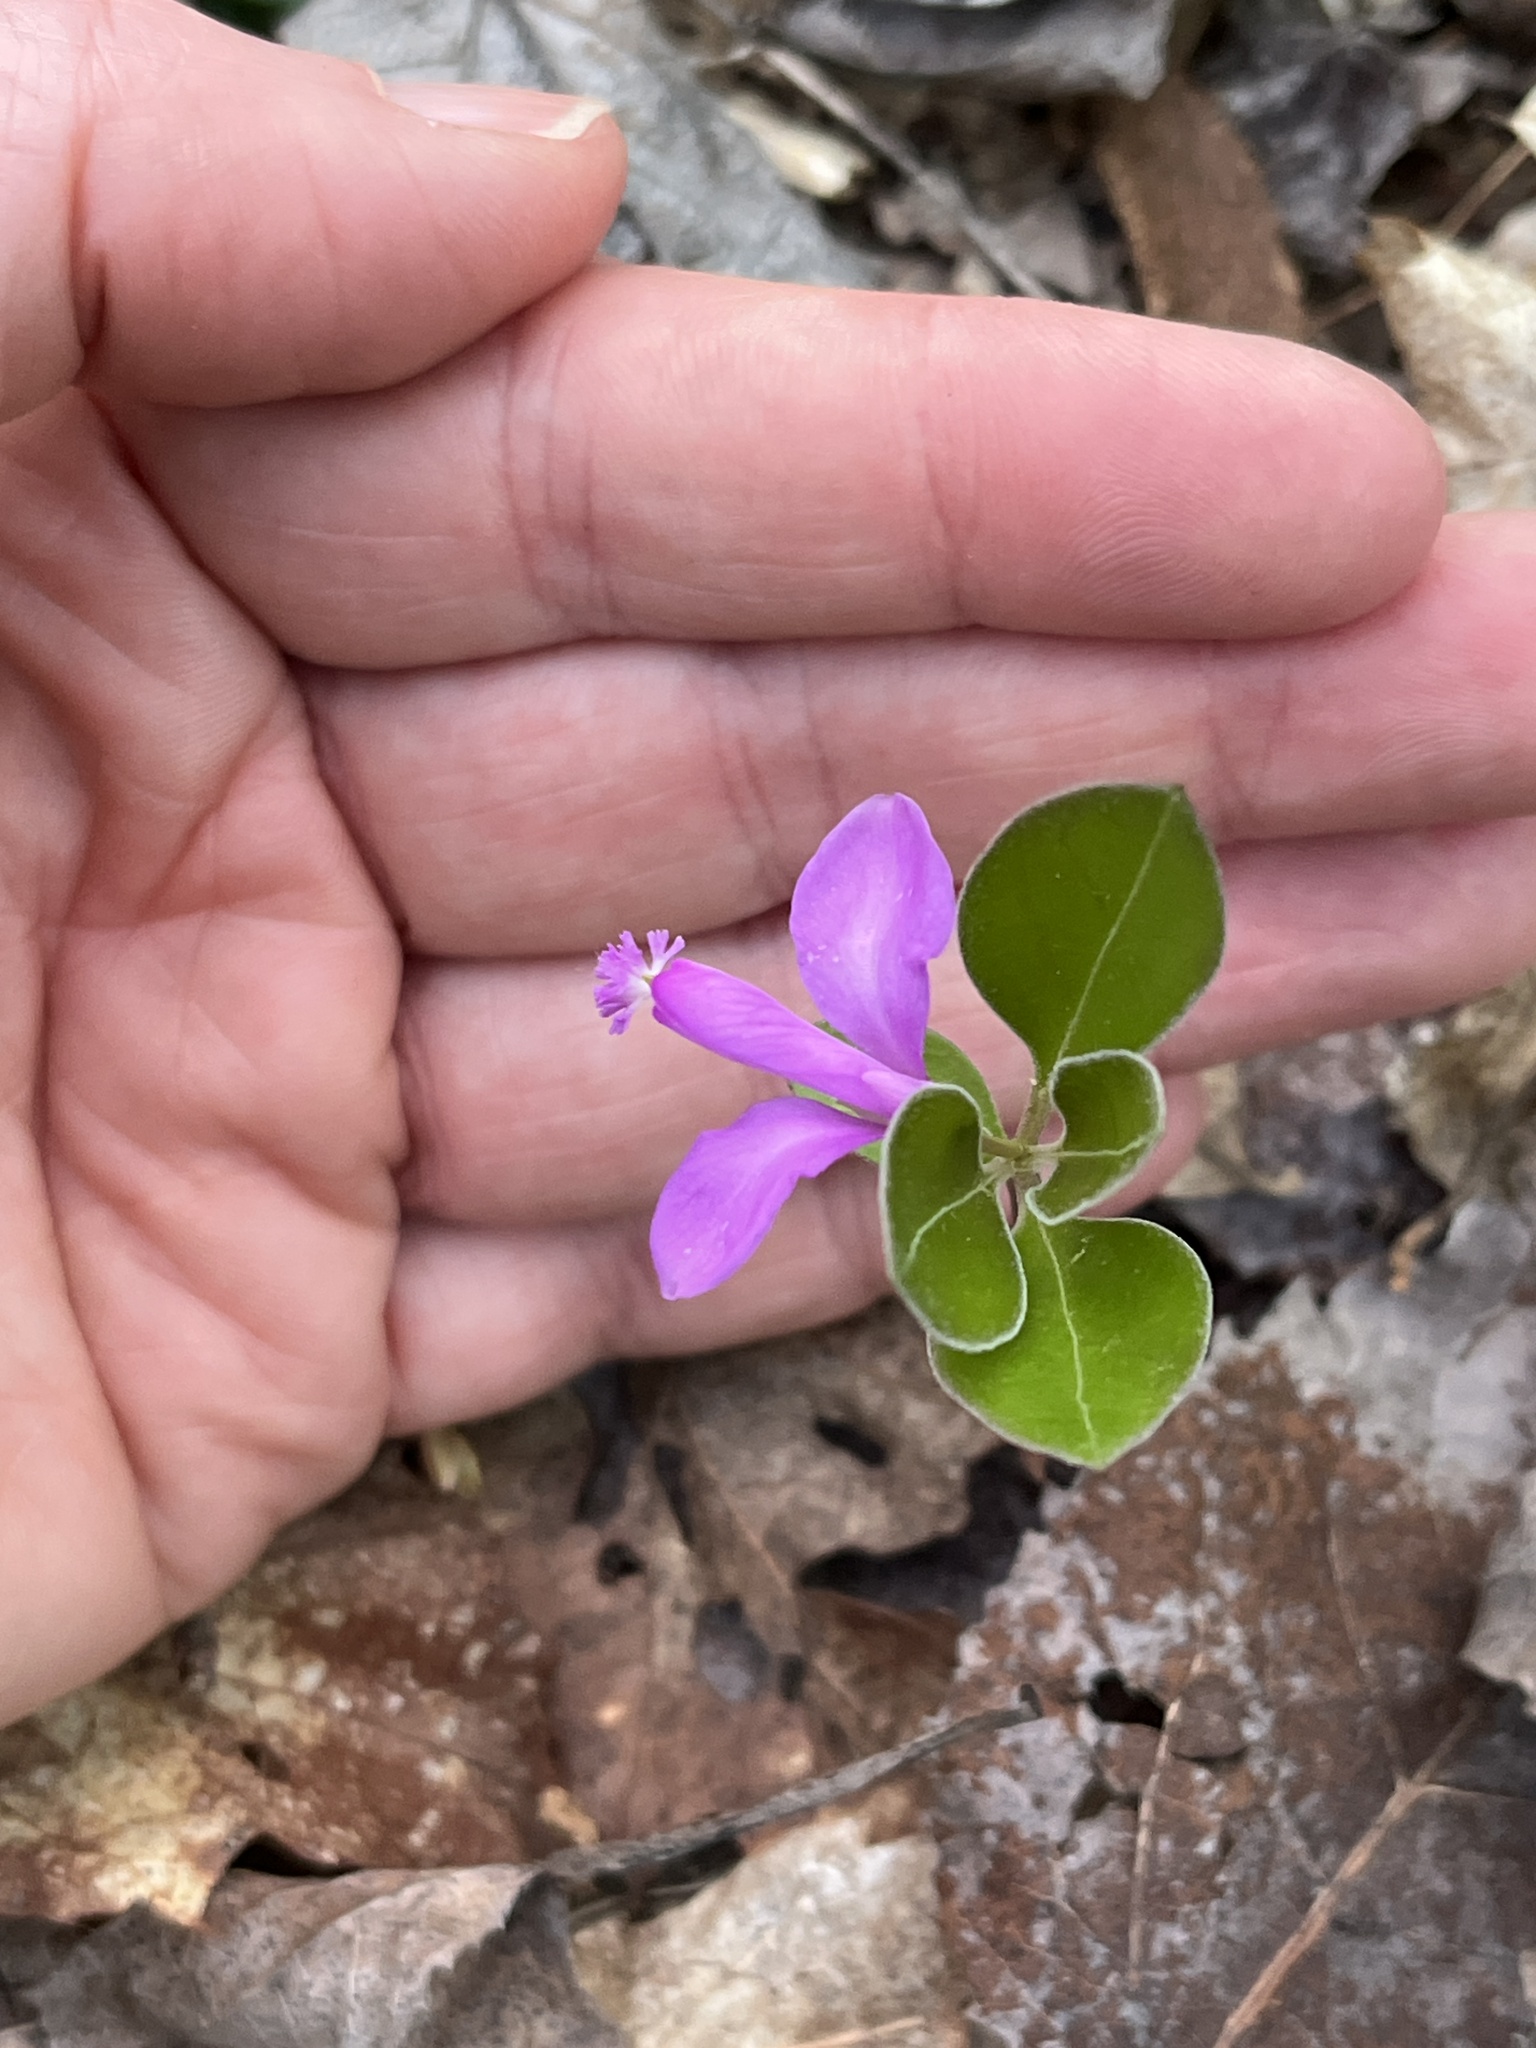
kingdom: Plantae
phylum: Tracheophyta
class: Magnoliopsida
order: Fabales
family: Polygalaceae
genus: Polygaloides
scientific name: Polygaloides paucifolia
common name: Bird-on-the-wing
